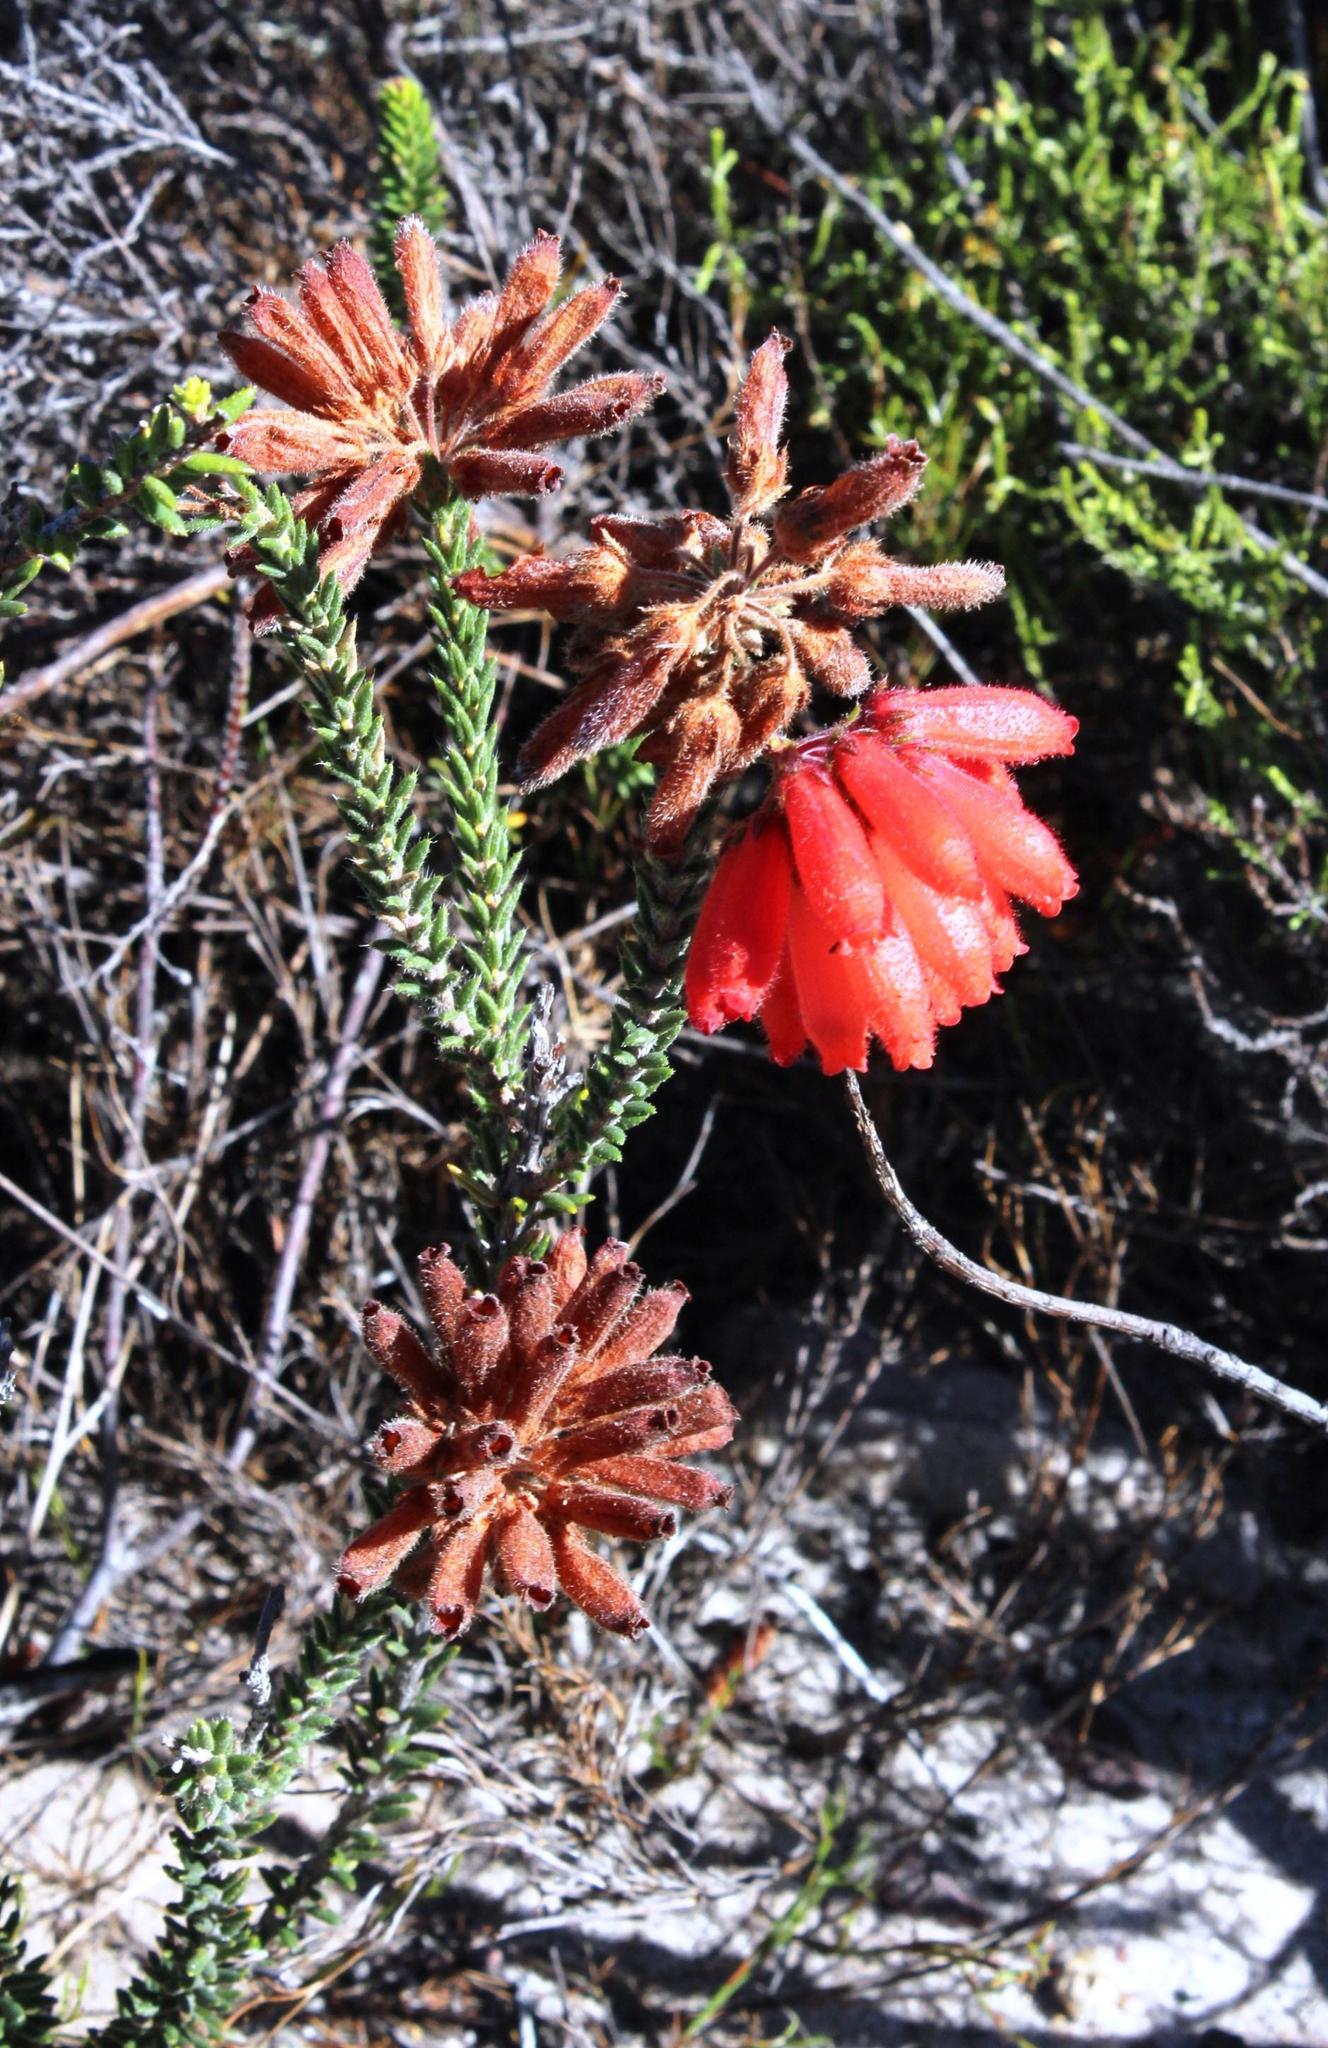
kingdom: Plantae
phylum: Tracheophyta
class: Magnoliopsida
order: Ericales
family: Ericaceae
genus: Erica
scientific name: Erica cerinthoides
